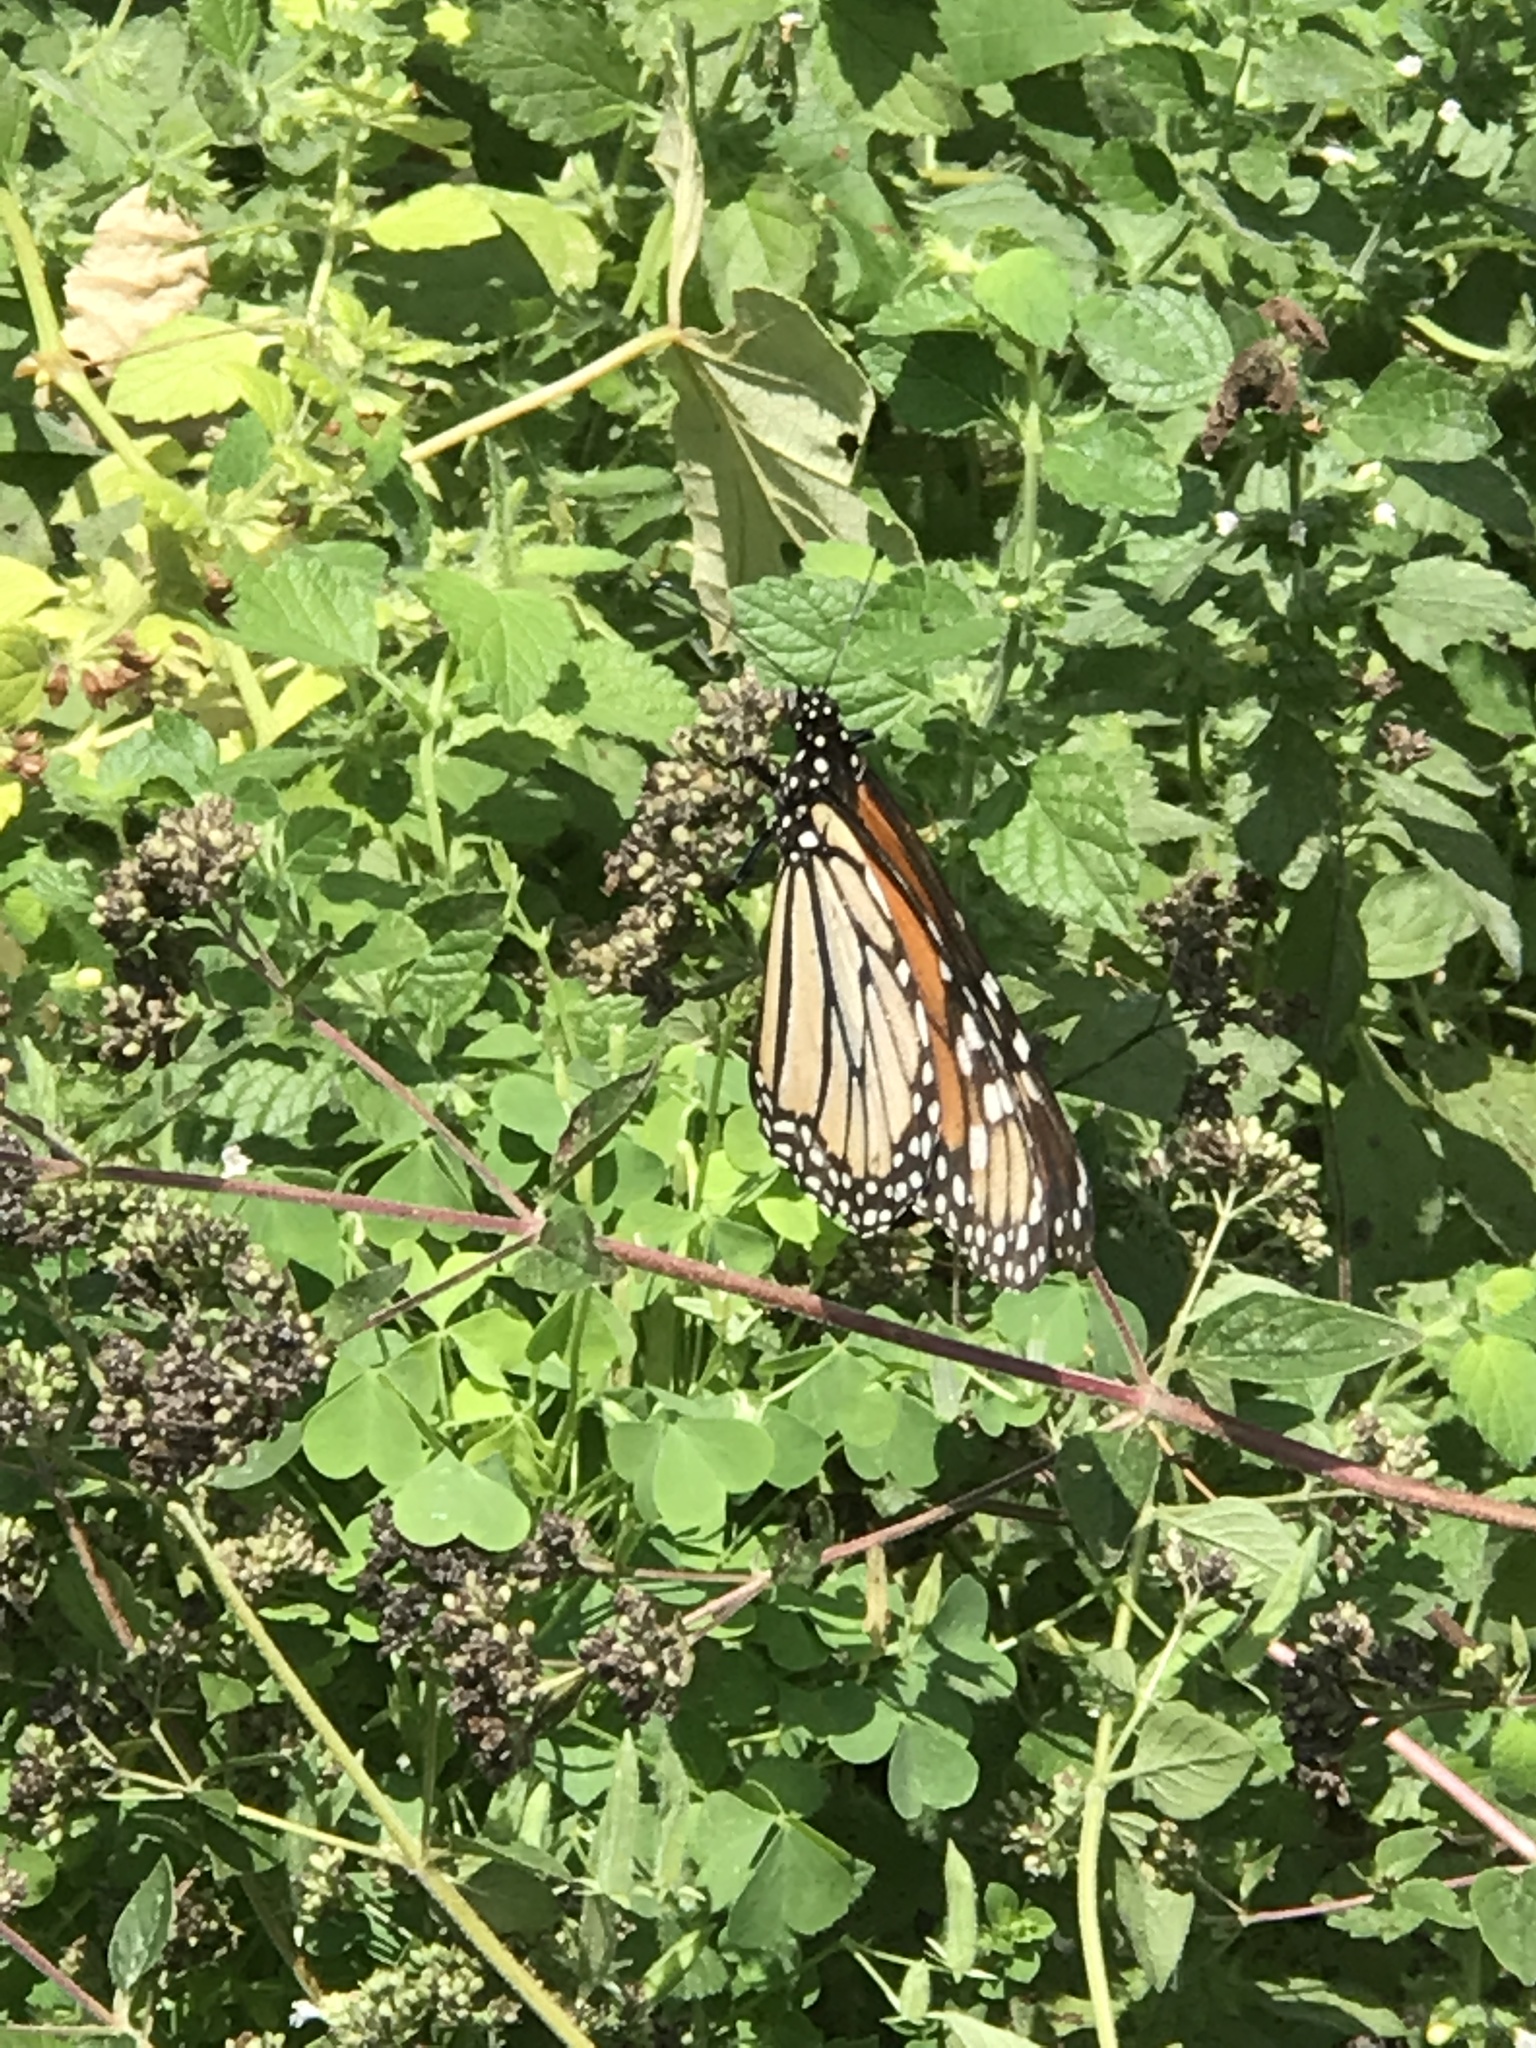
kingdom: Animalia
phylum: Arthropoda
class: Insecta
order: Lepidoptera
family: Nymphalidae
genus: Danaus
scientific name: Danaus plexippus
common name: Monarch
